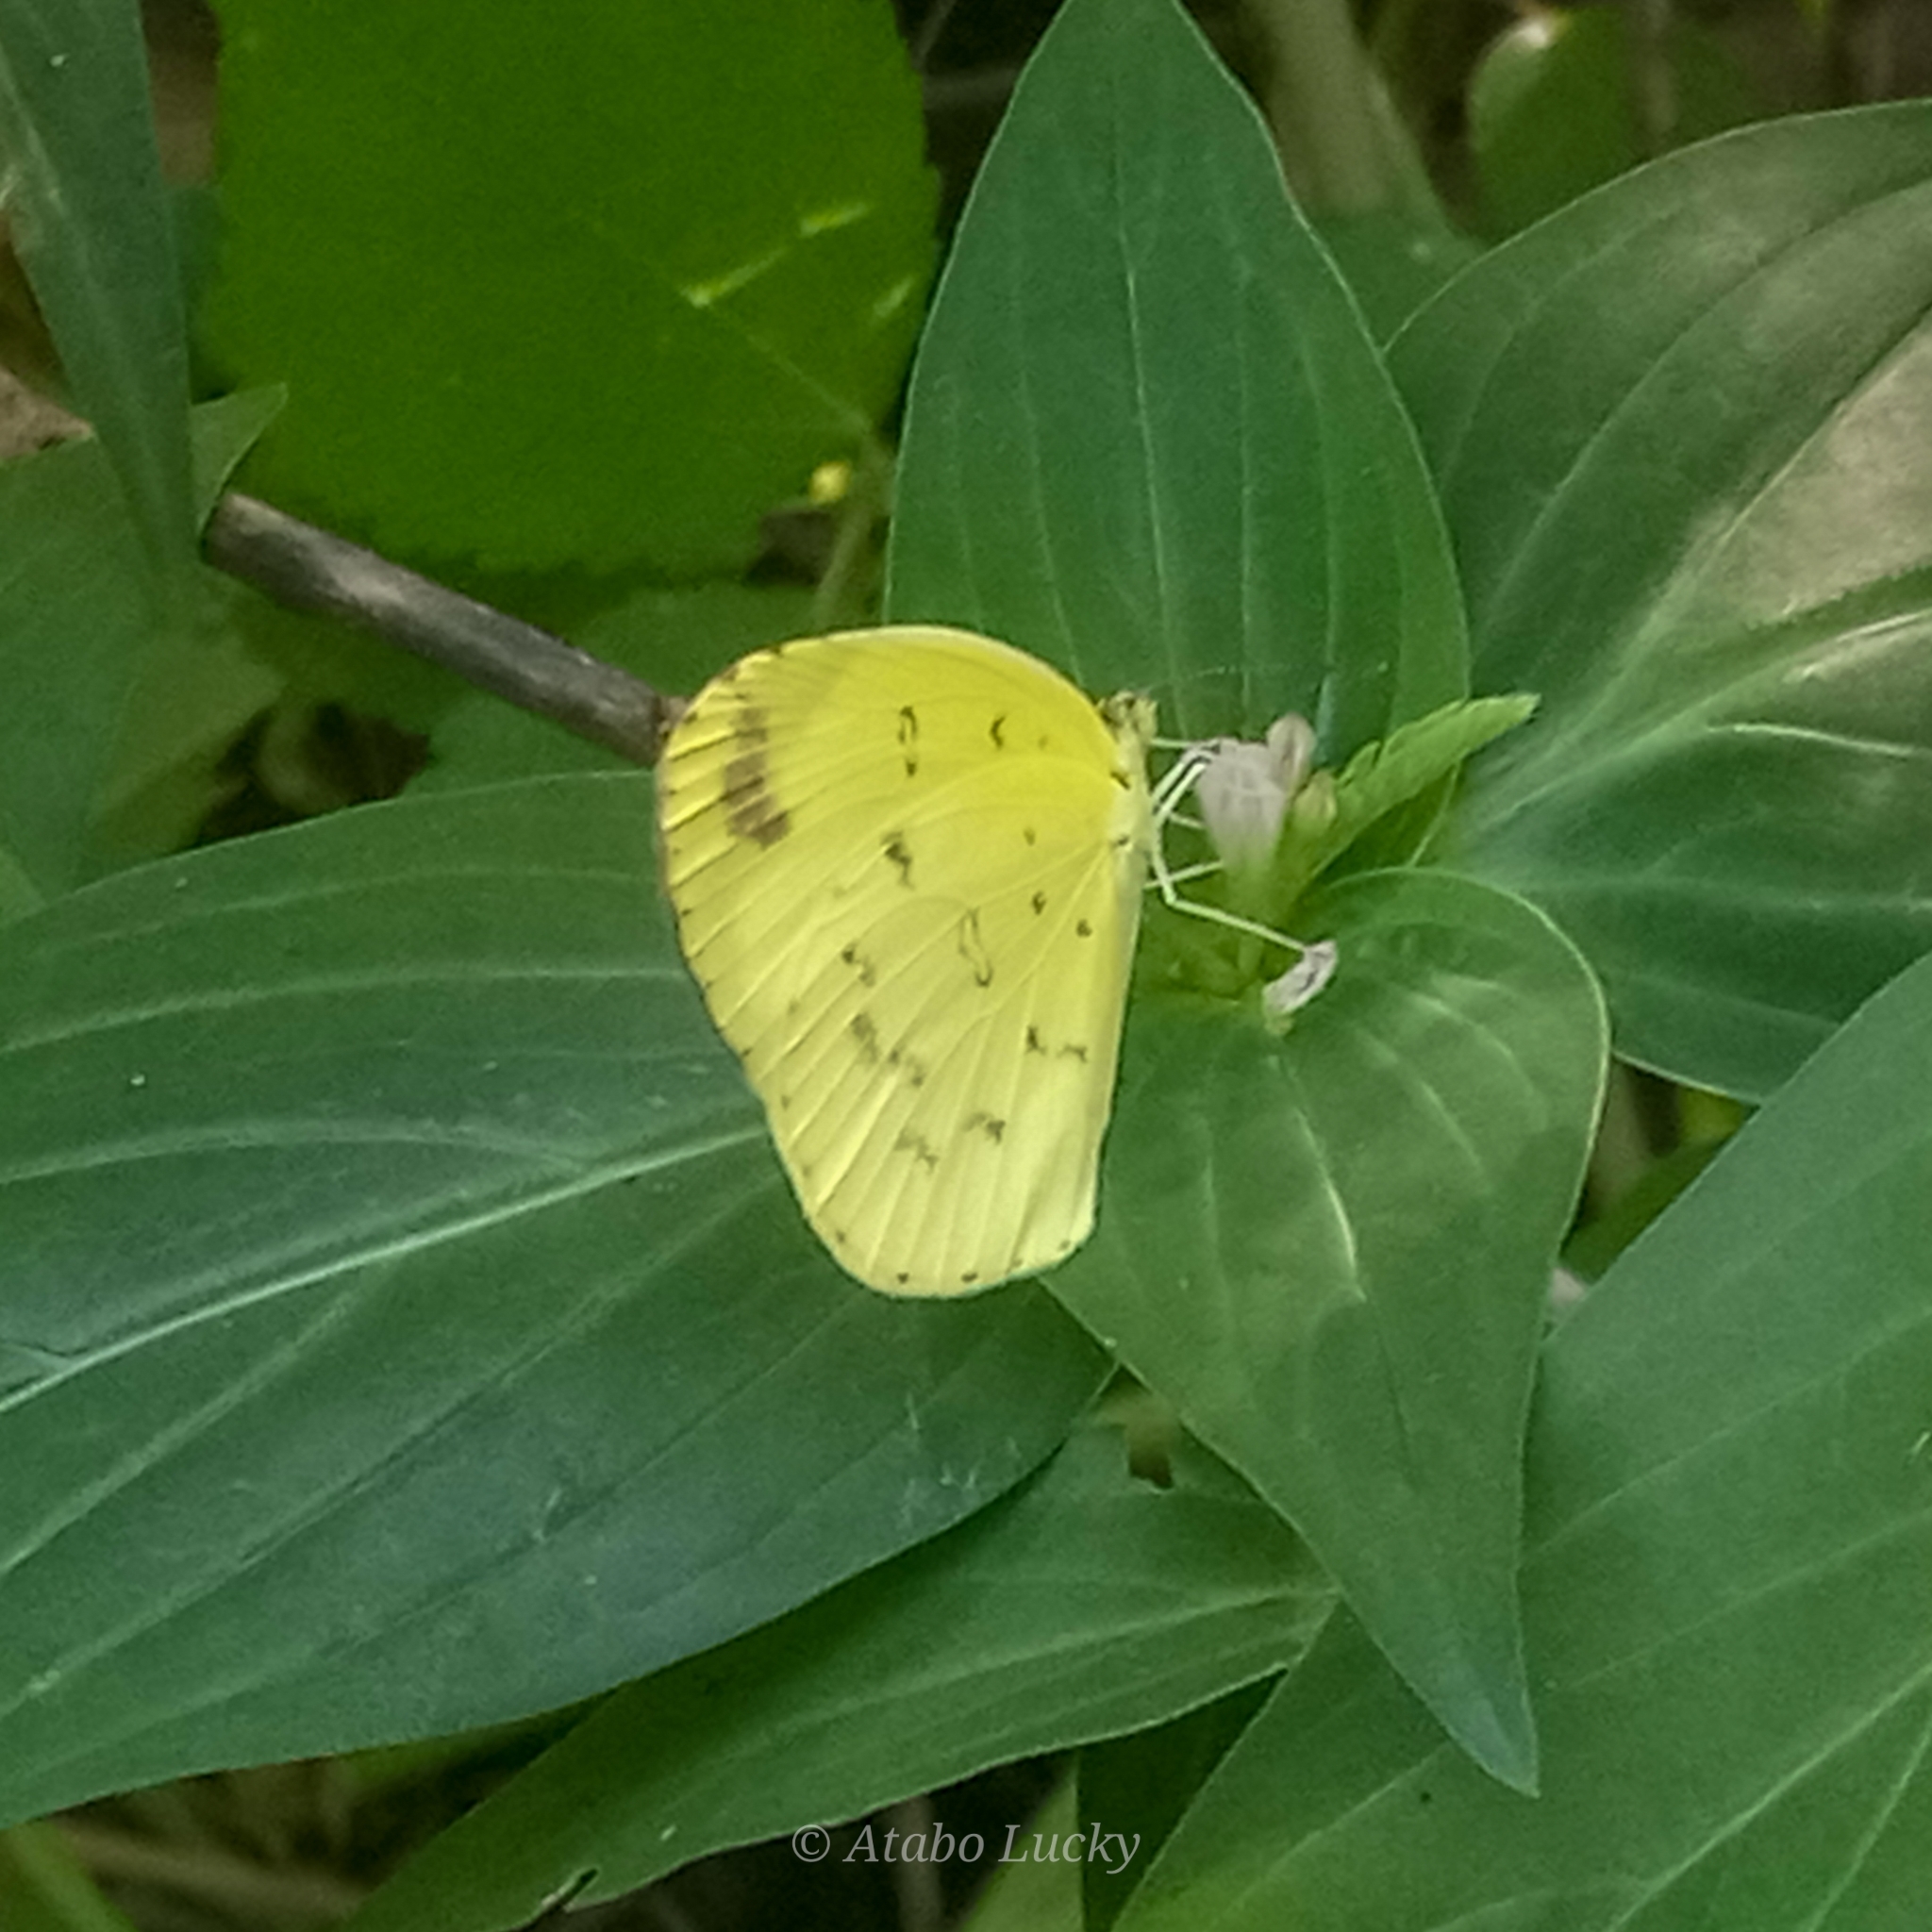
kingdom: Animalia
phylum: Arthropoda
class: Insecta
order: Lepidoptera
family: Pieridae
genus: Eurema
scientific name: Eurema hecabe
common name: Pale grass yellow
